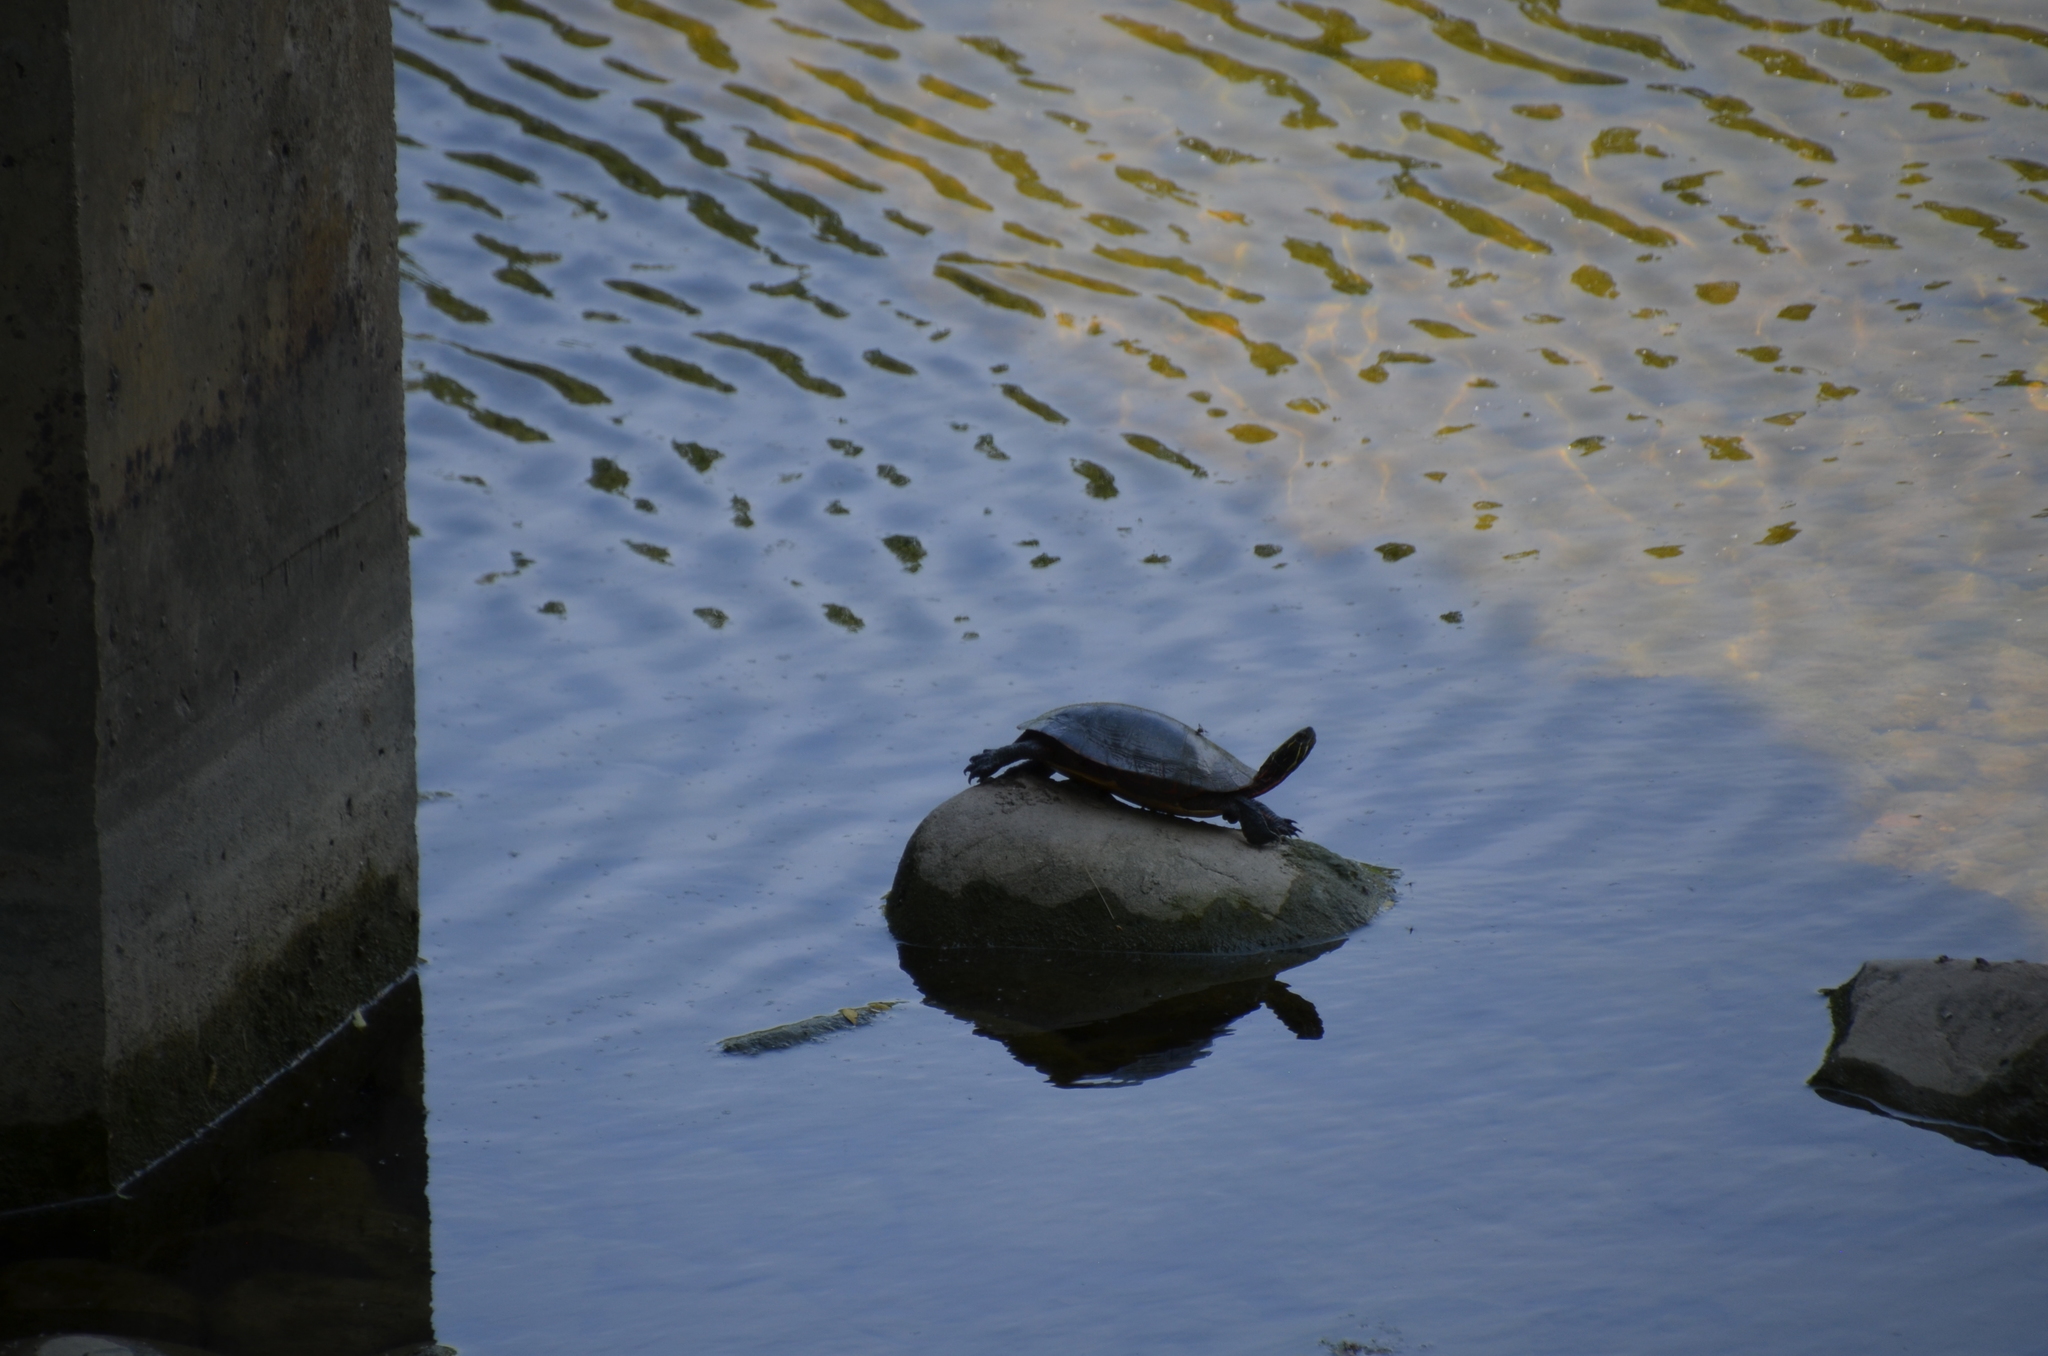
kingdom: Animalia
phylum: Chordata
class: Testudines
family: Emydidae
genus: Chrysemys
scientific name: Chrysemys picta
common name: Painted turtle
